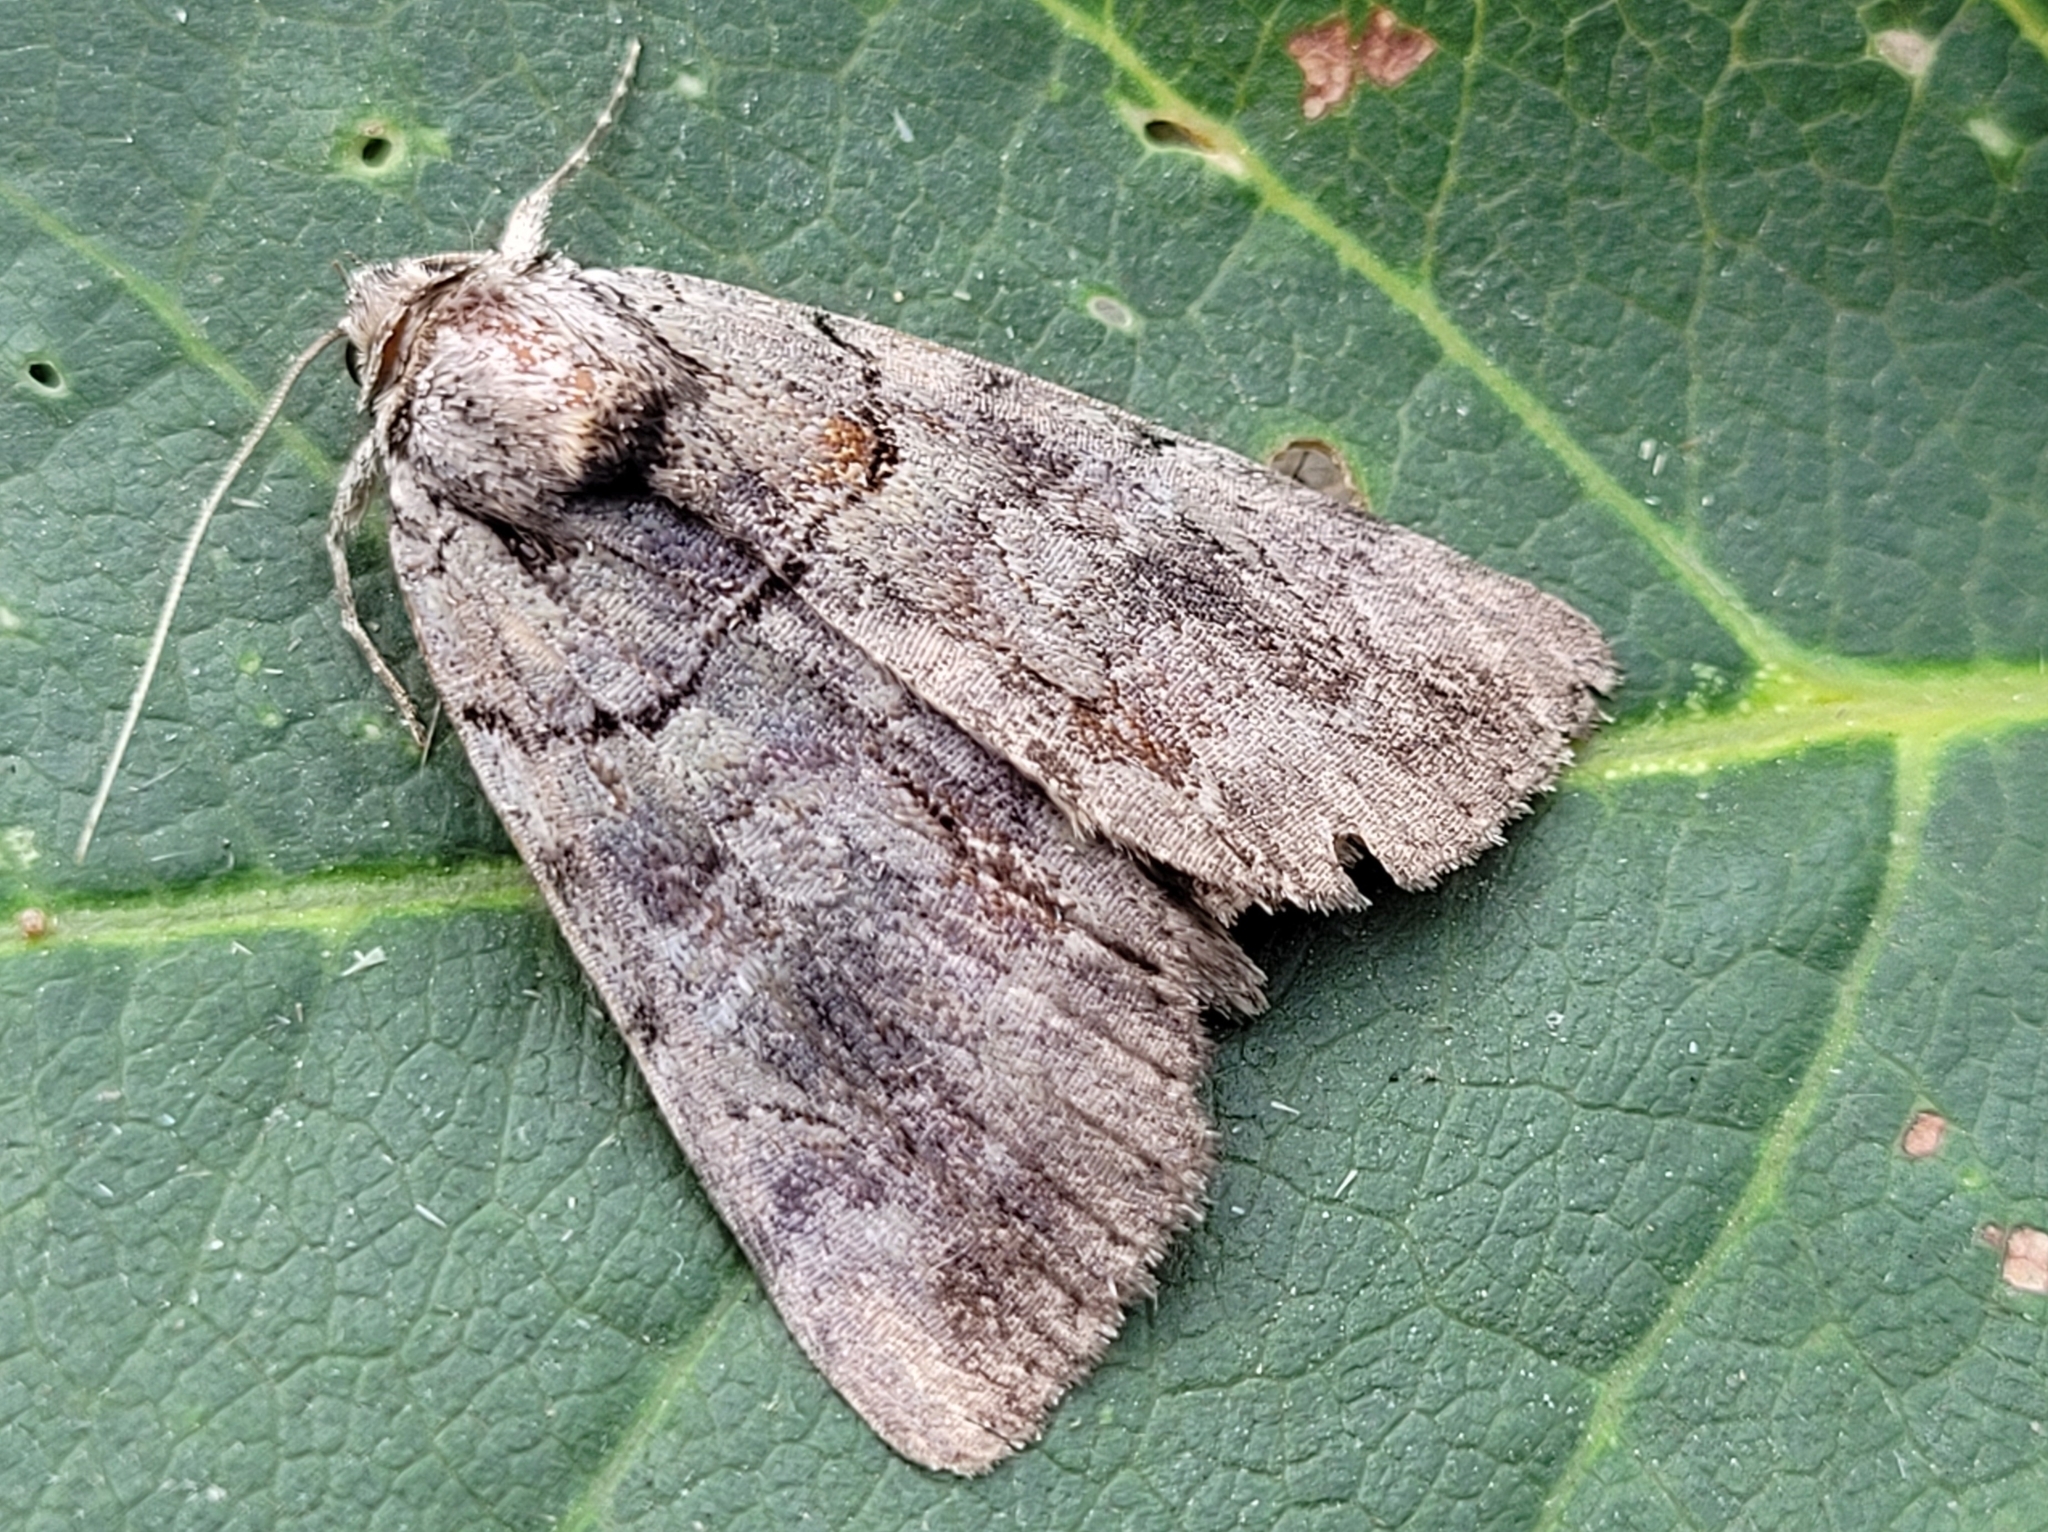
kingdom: Animalia
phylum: Arthropoda
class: Insecta
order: Lepidoptera
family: Erebidae
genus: Catocala
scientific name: Catocala praeclara
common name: Praeclara underwing
